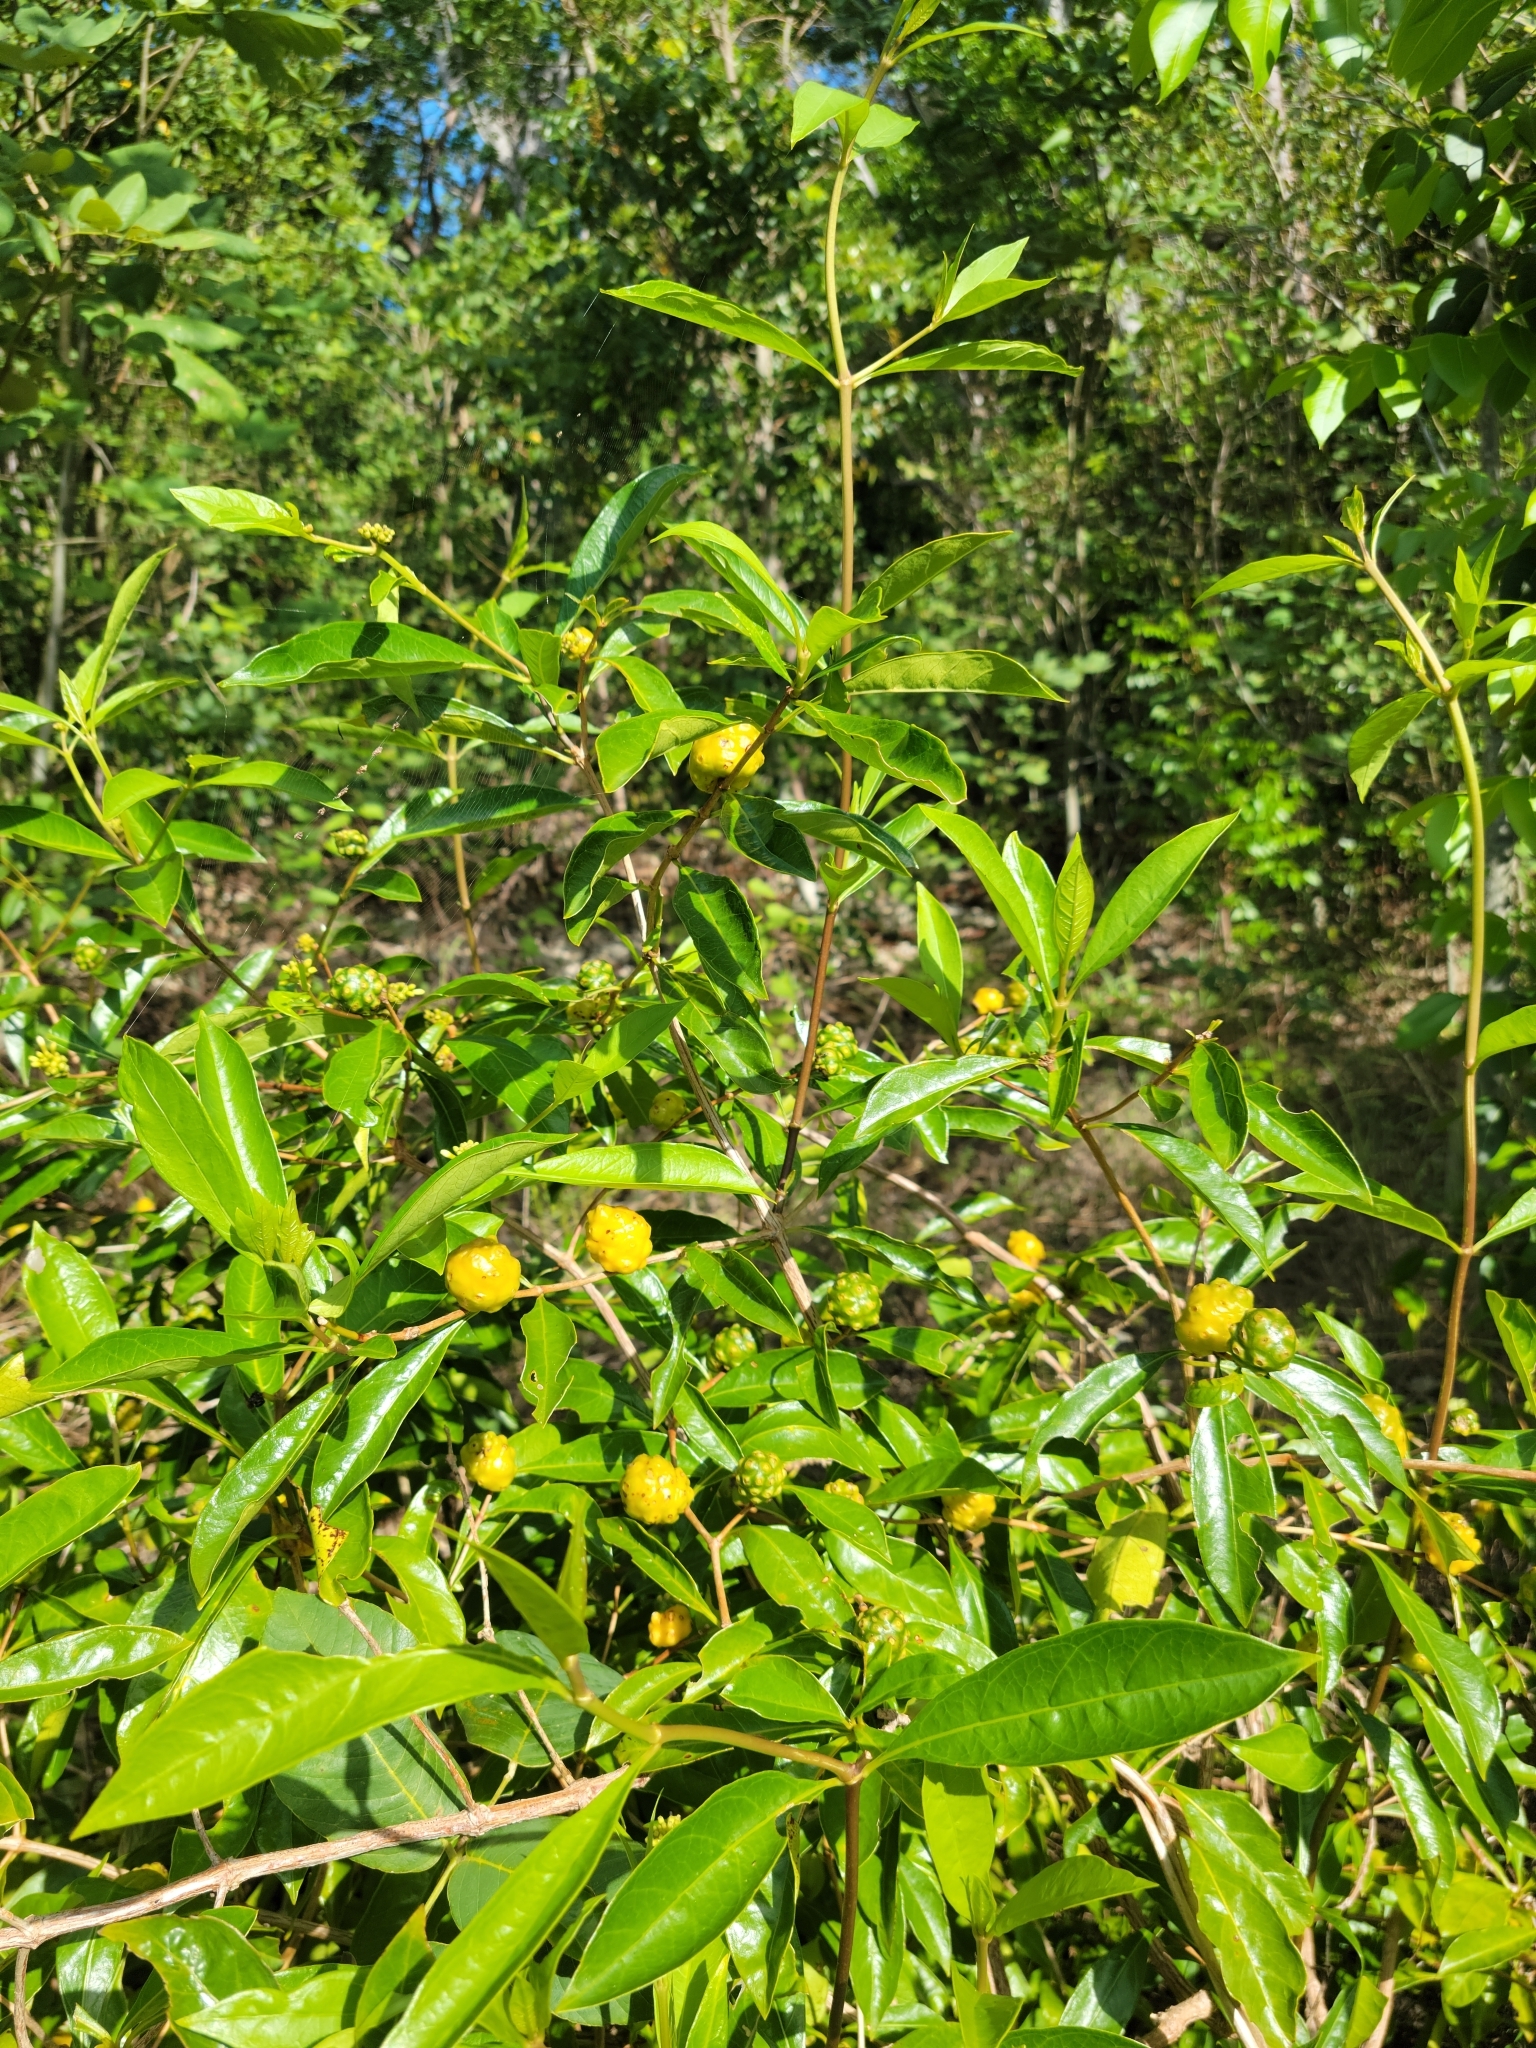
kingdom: Plantae
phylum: Tracheophyta
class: Magnoliopsida
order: Gentianales
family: Rubiaceae
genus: Morinda
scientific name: Morinda royoc
